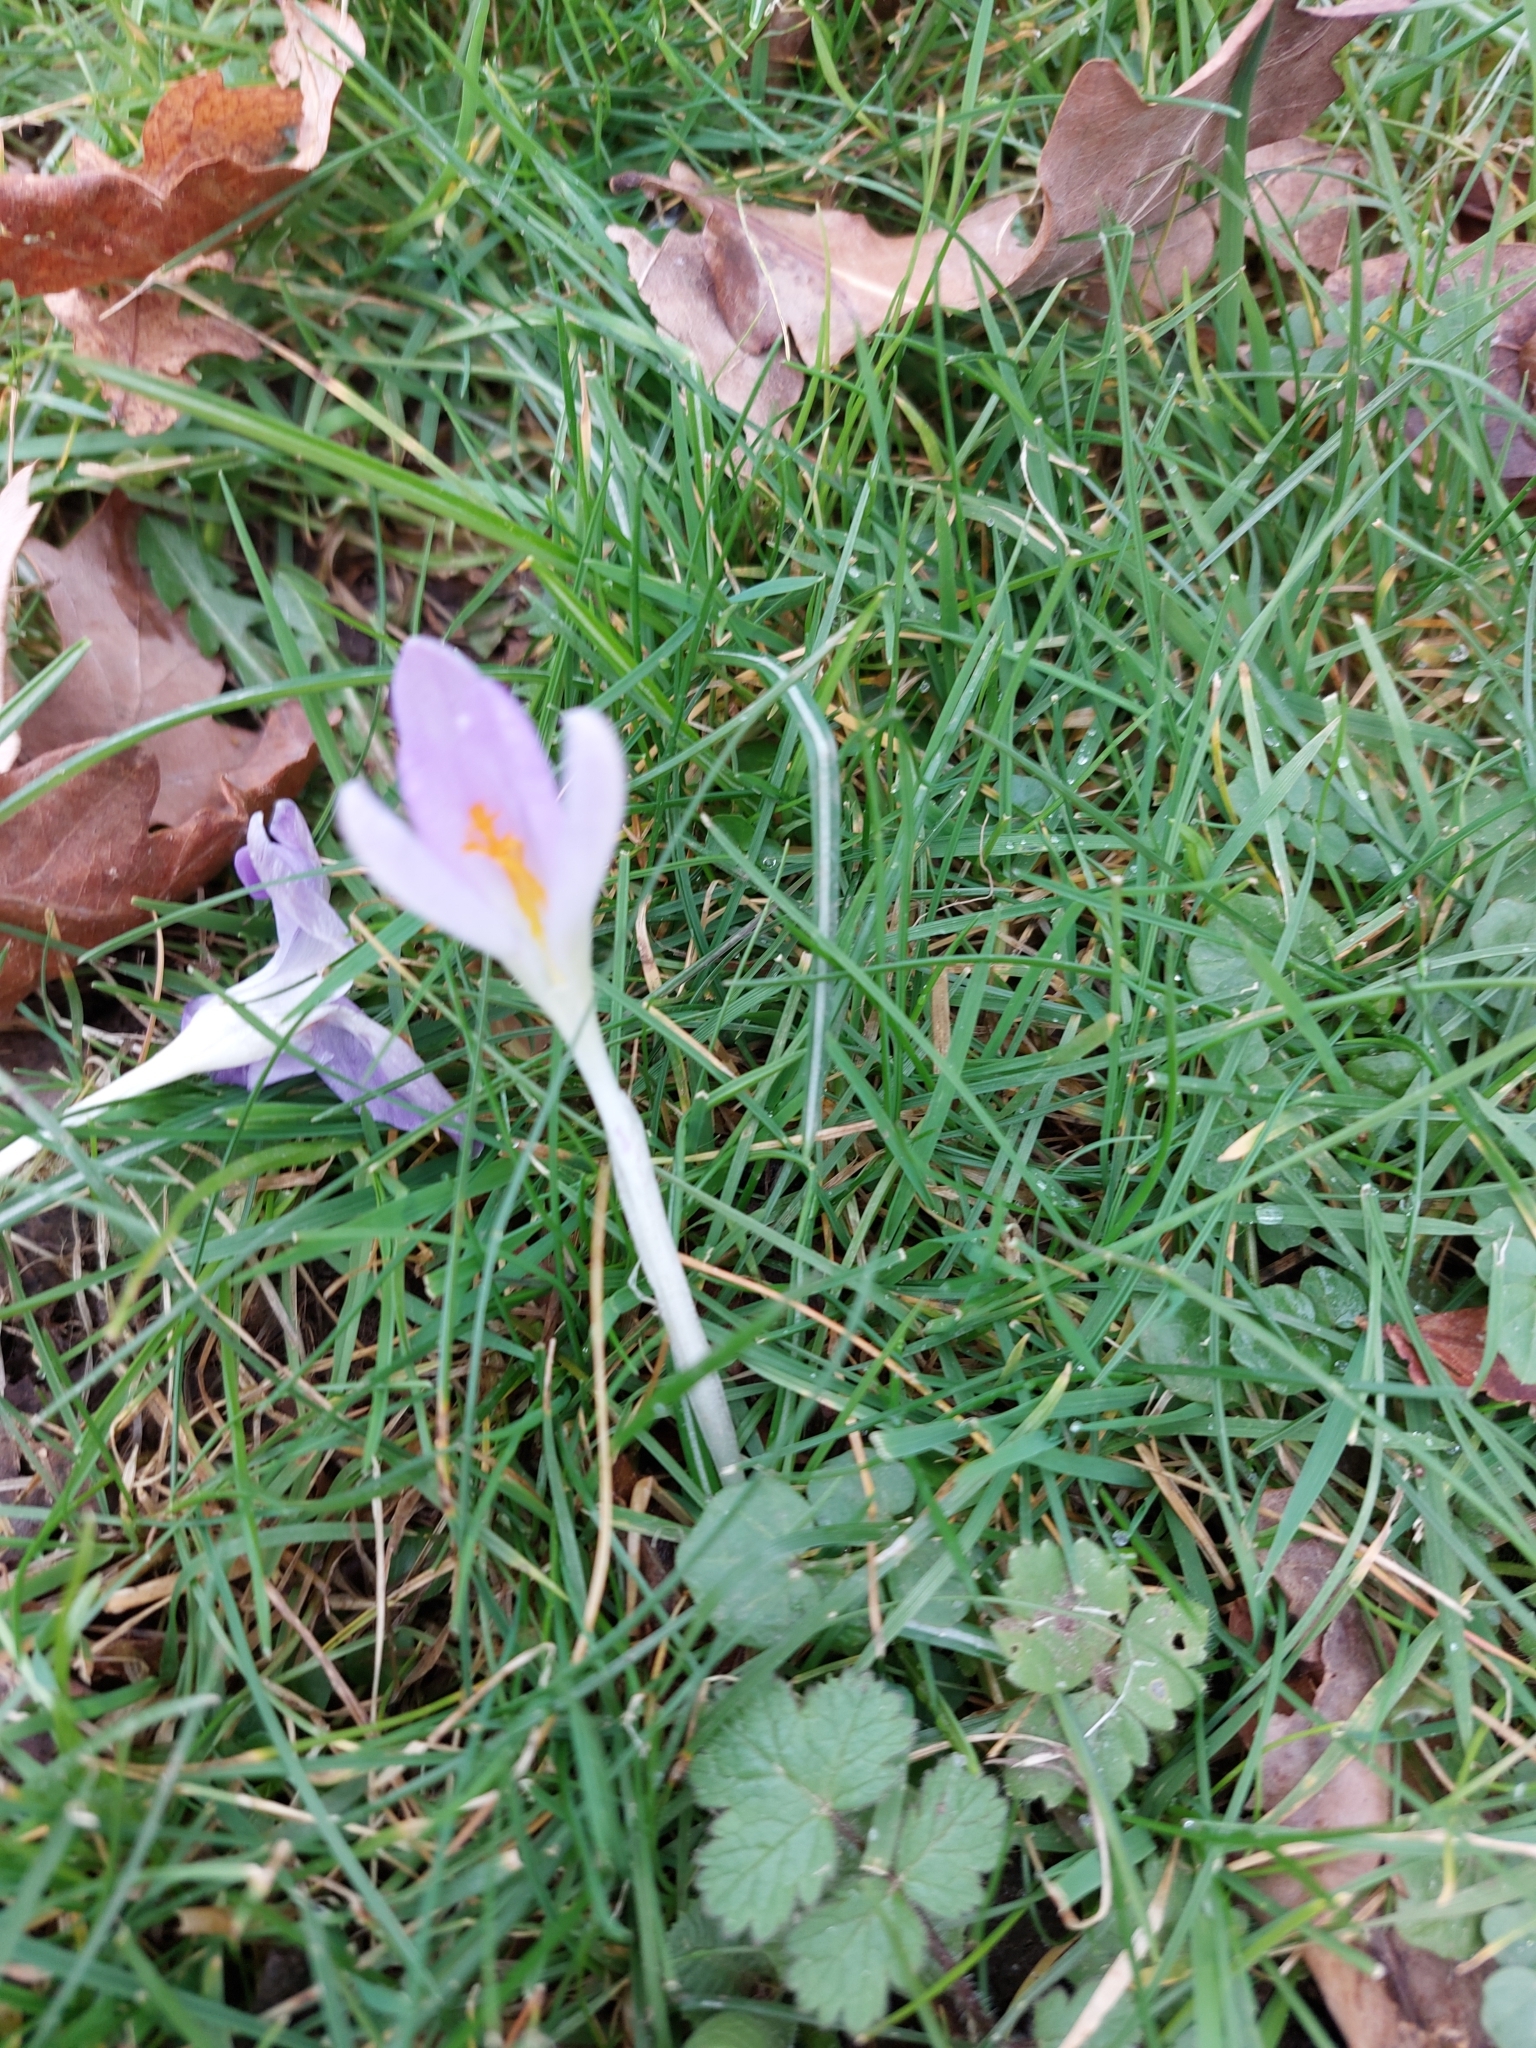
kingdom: Plantae
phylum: Tracheophyta
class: Liliopsida
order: Asparagales
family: Iridaceae
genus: Crocus
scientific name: Crocus tommasinianus
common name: Early crocus
